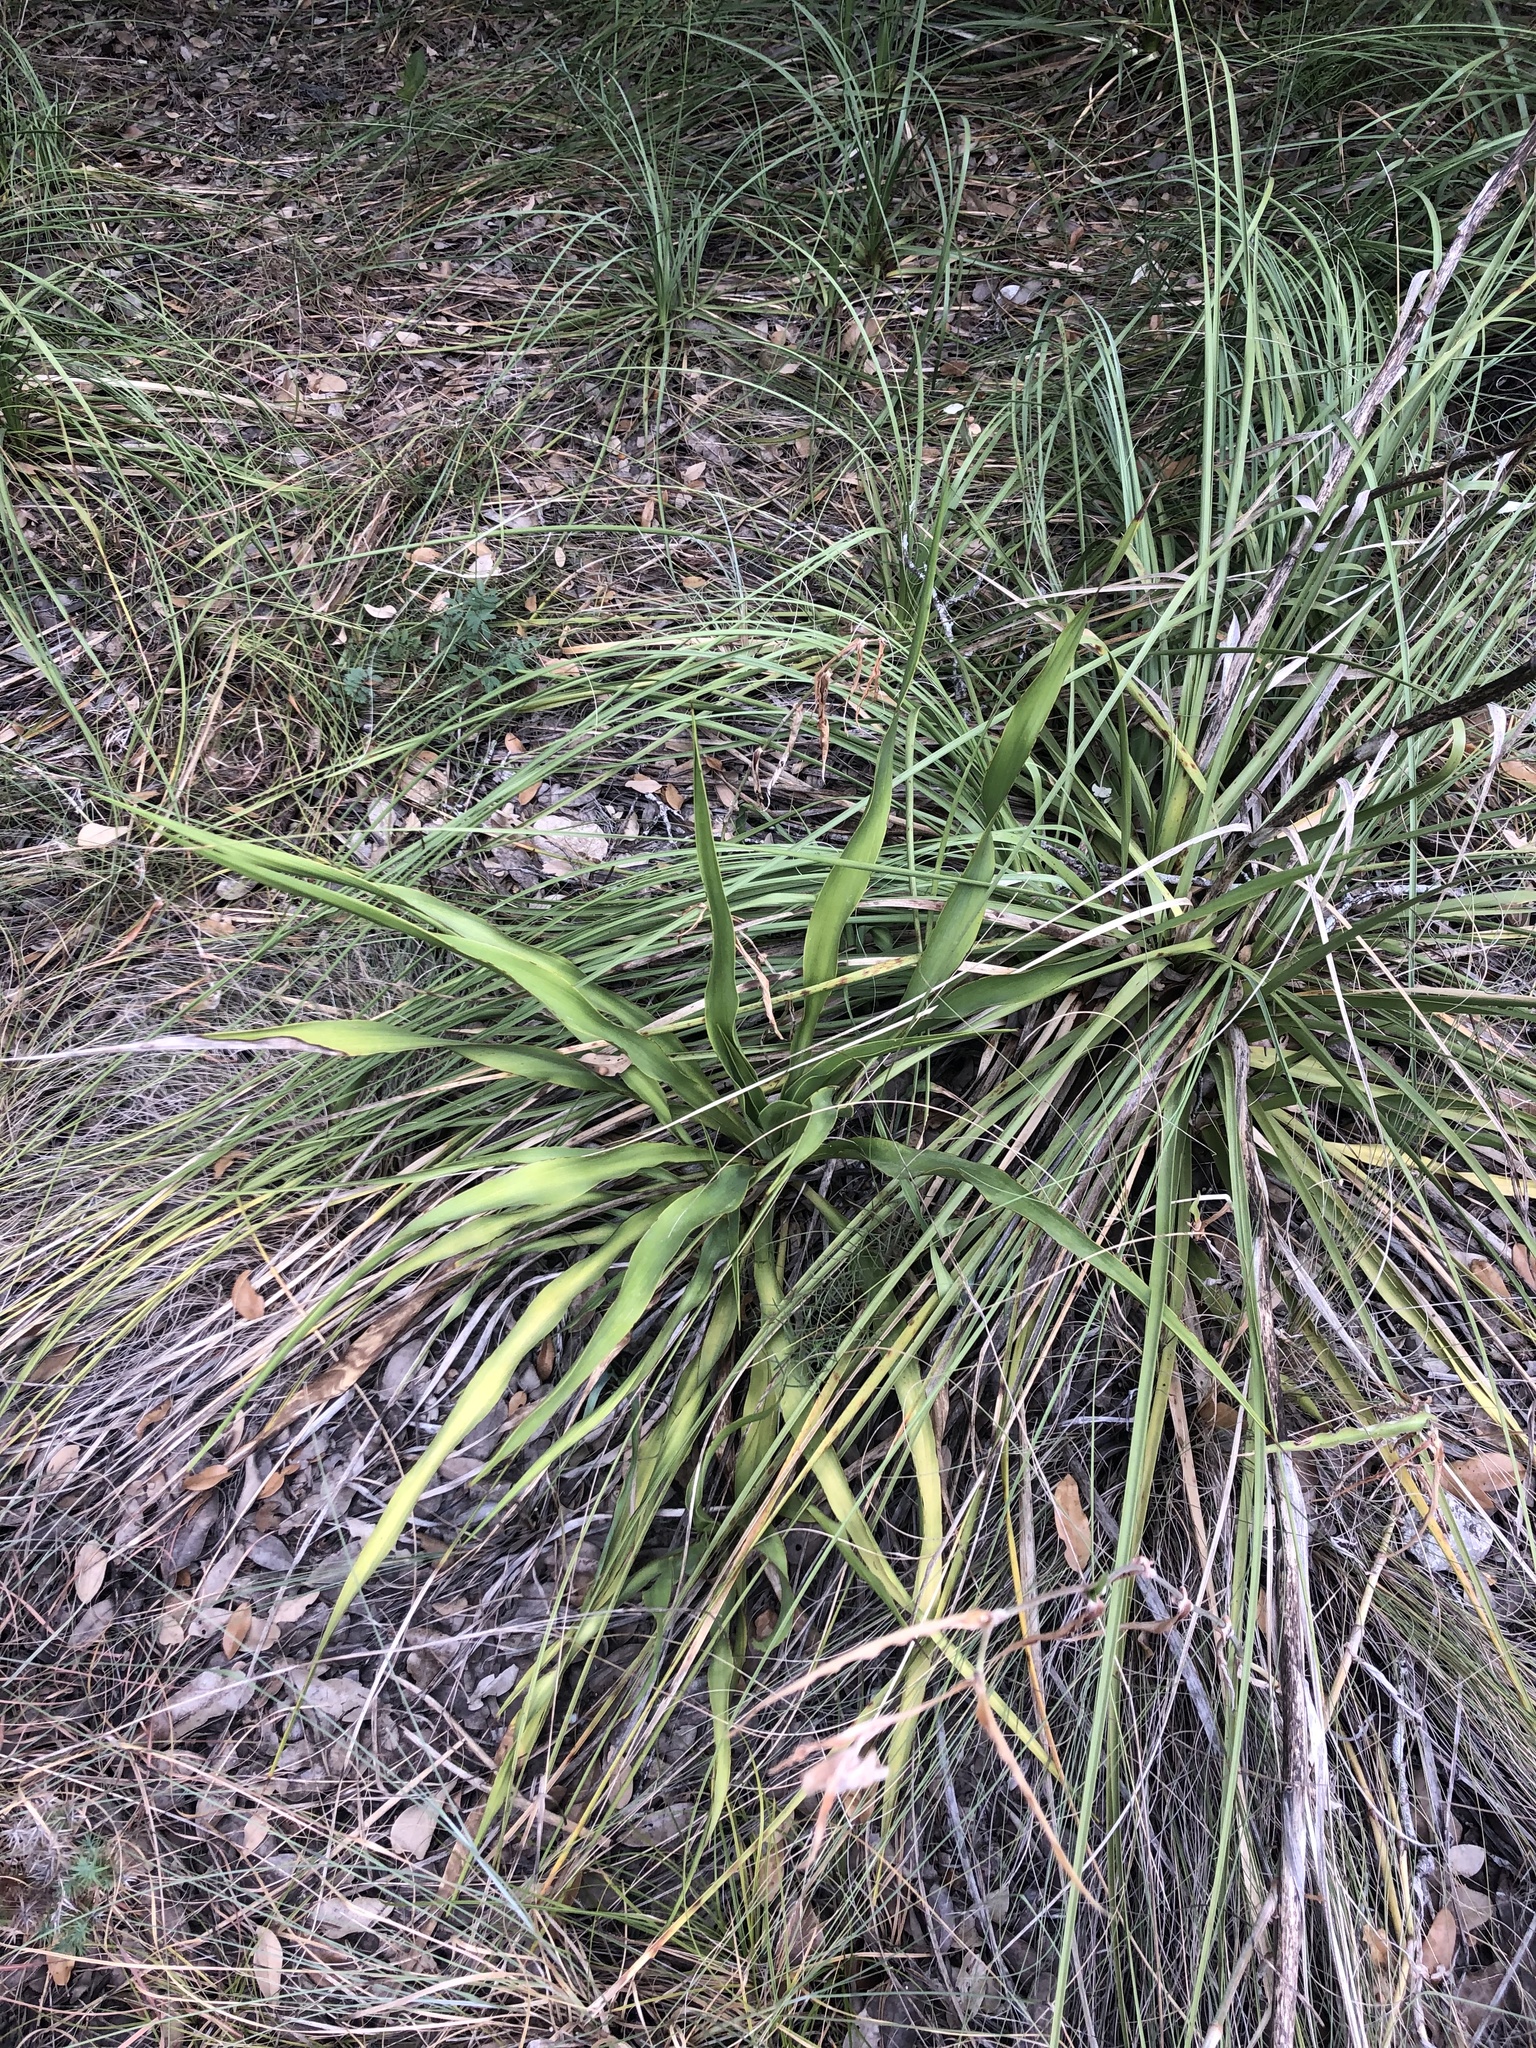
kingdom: Plantae
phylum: Tracheophyta
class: Liliopsida
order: Asparagales
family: Asparagaceae
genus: Yucca
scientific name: Yucca rupicola
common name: Twisted-leaf spanish-dagger
